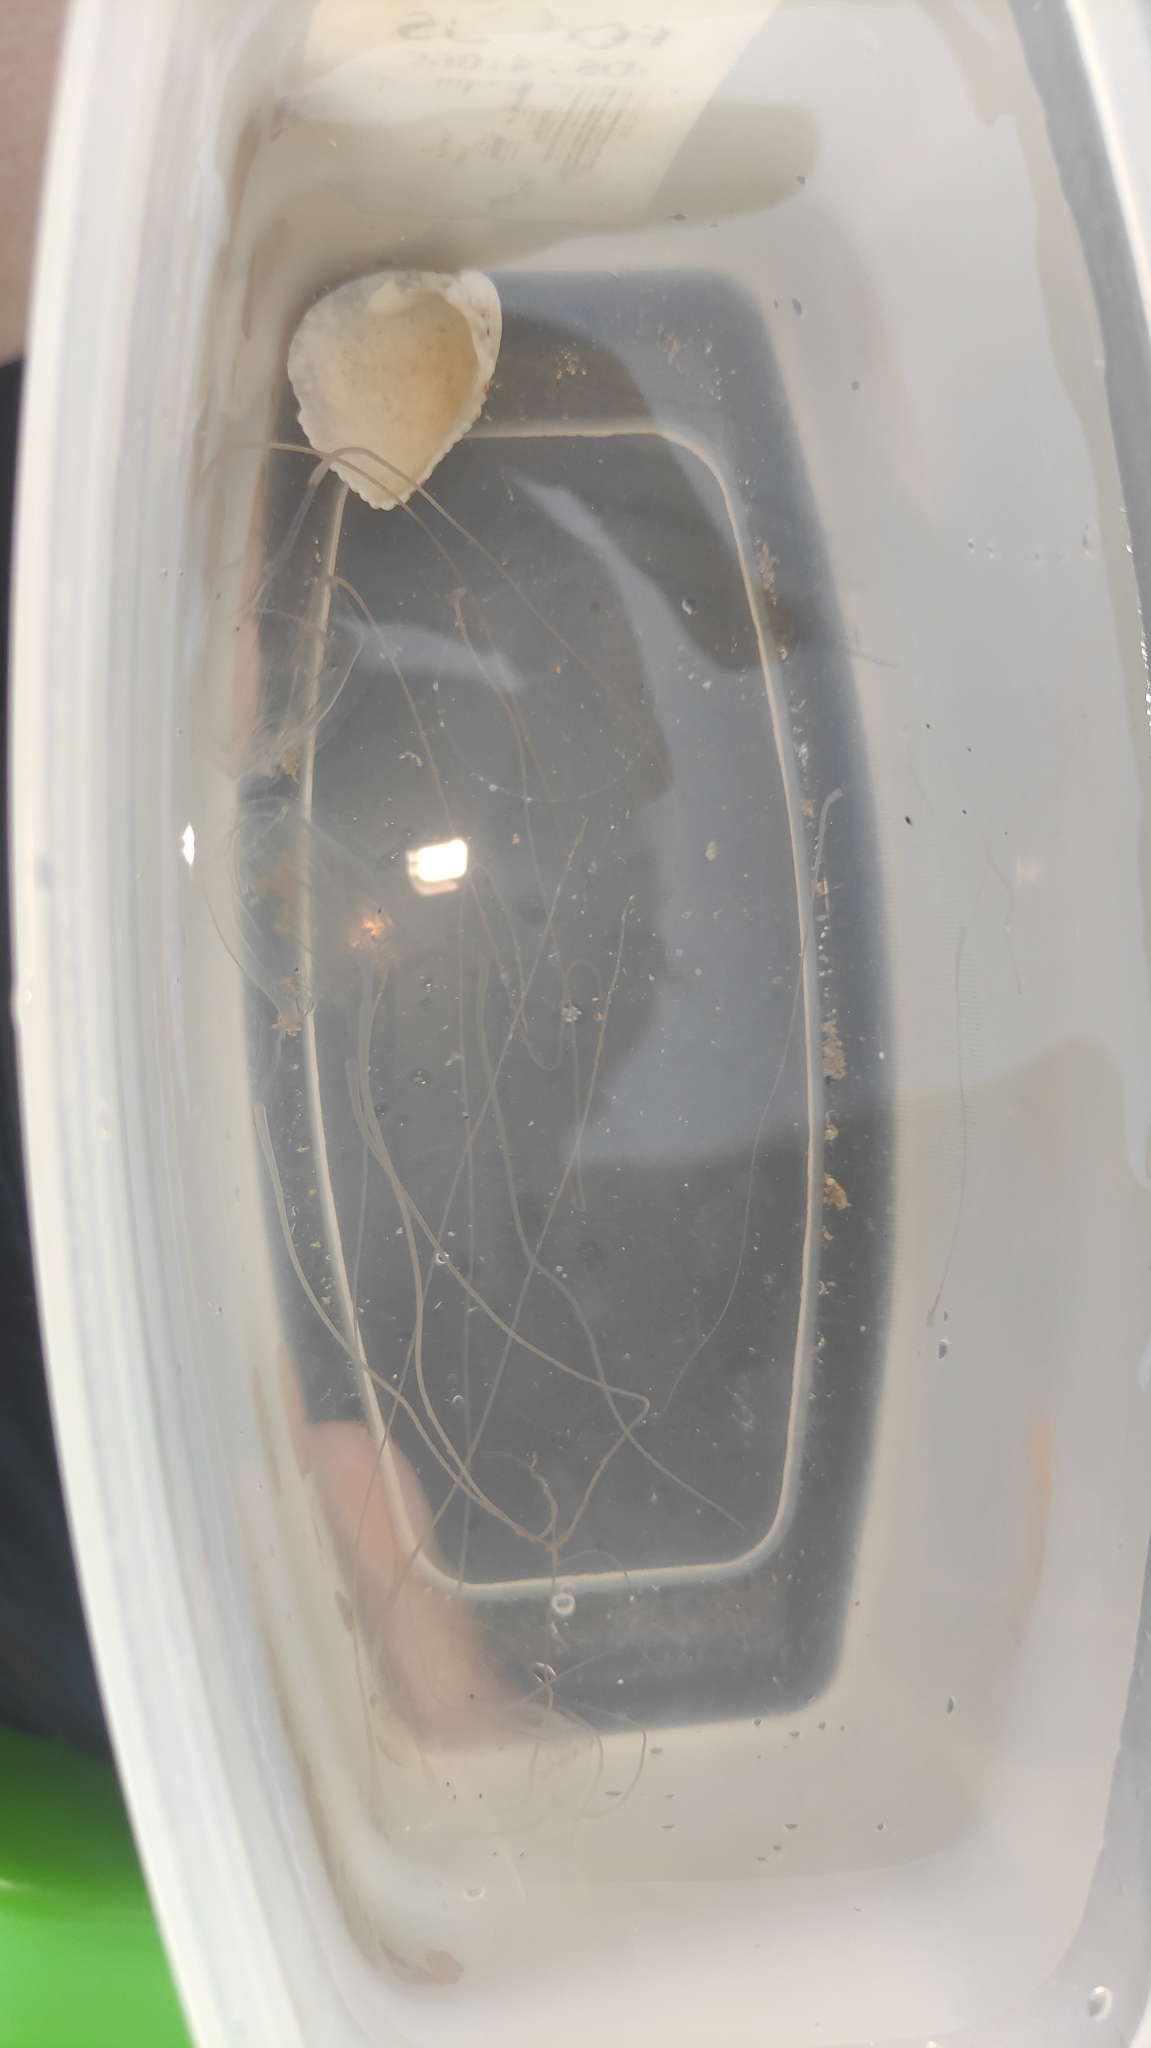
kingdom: Animalia
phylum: Cnidaria
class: Cubozoa
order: Carybdeida
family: Carybdeidae
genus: Carybdea
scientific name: Carybdea xaymacana
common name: Box jelly
